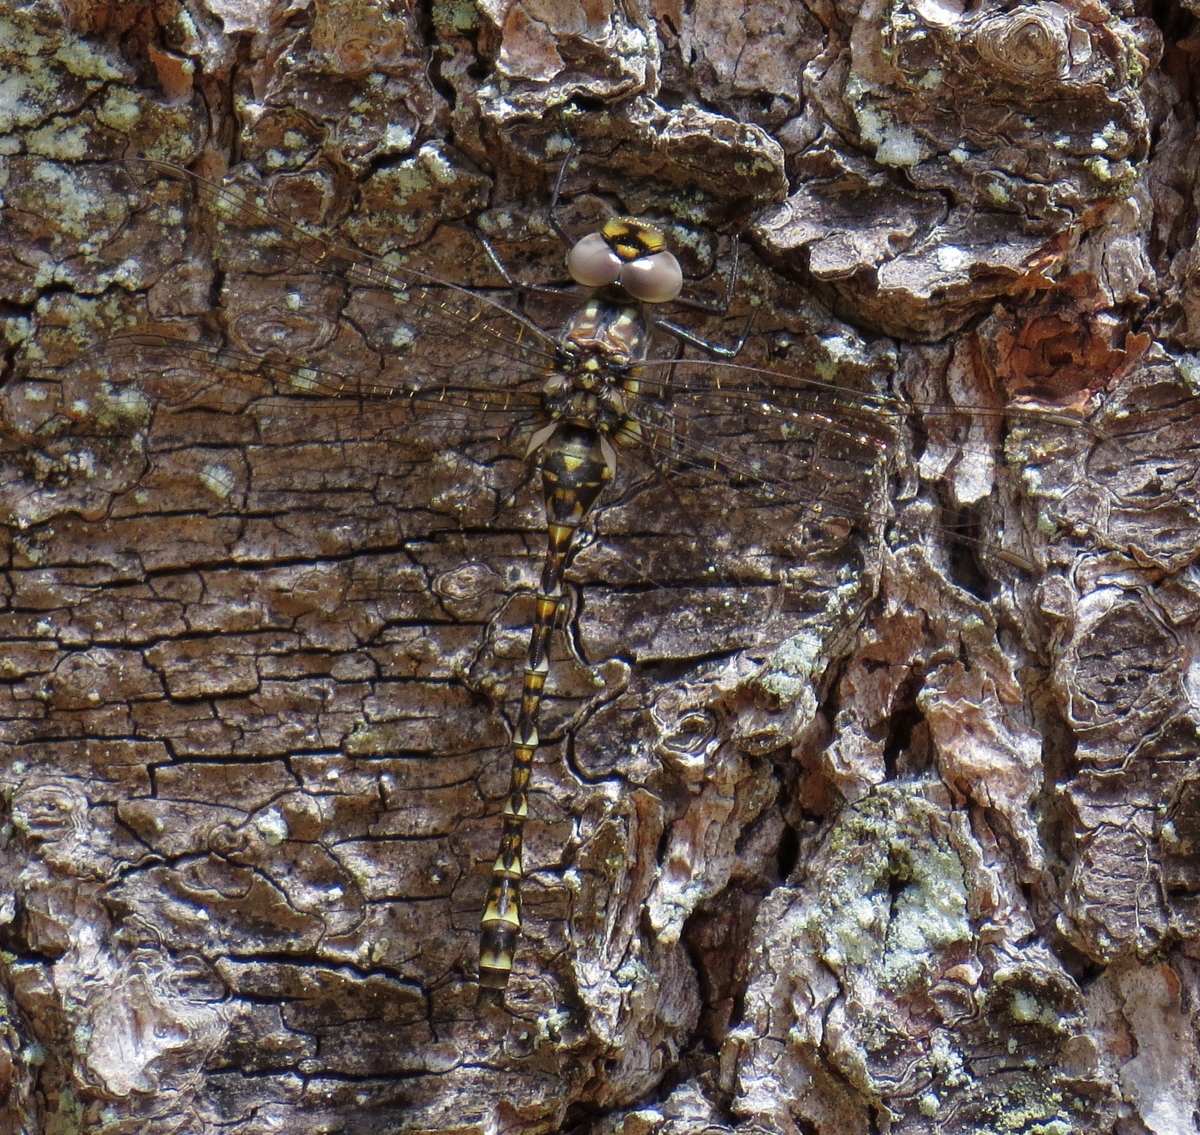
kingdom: Animalia
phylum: Arthropoda
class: Insecta
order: Odonata
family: Aeshnidae
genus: Gomphaeschna
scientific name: Gomphaeschna furcillata
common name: Harlequin darner
